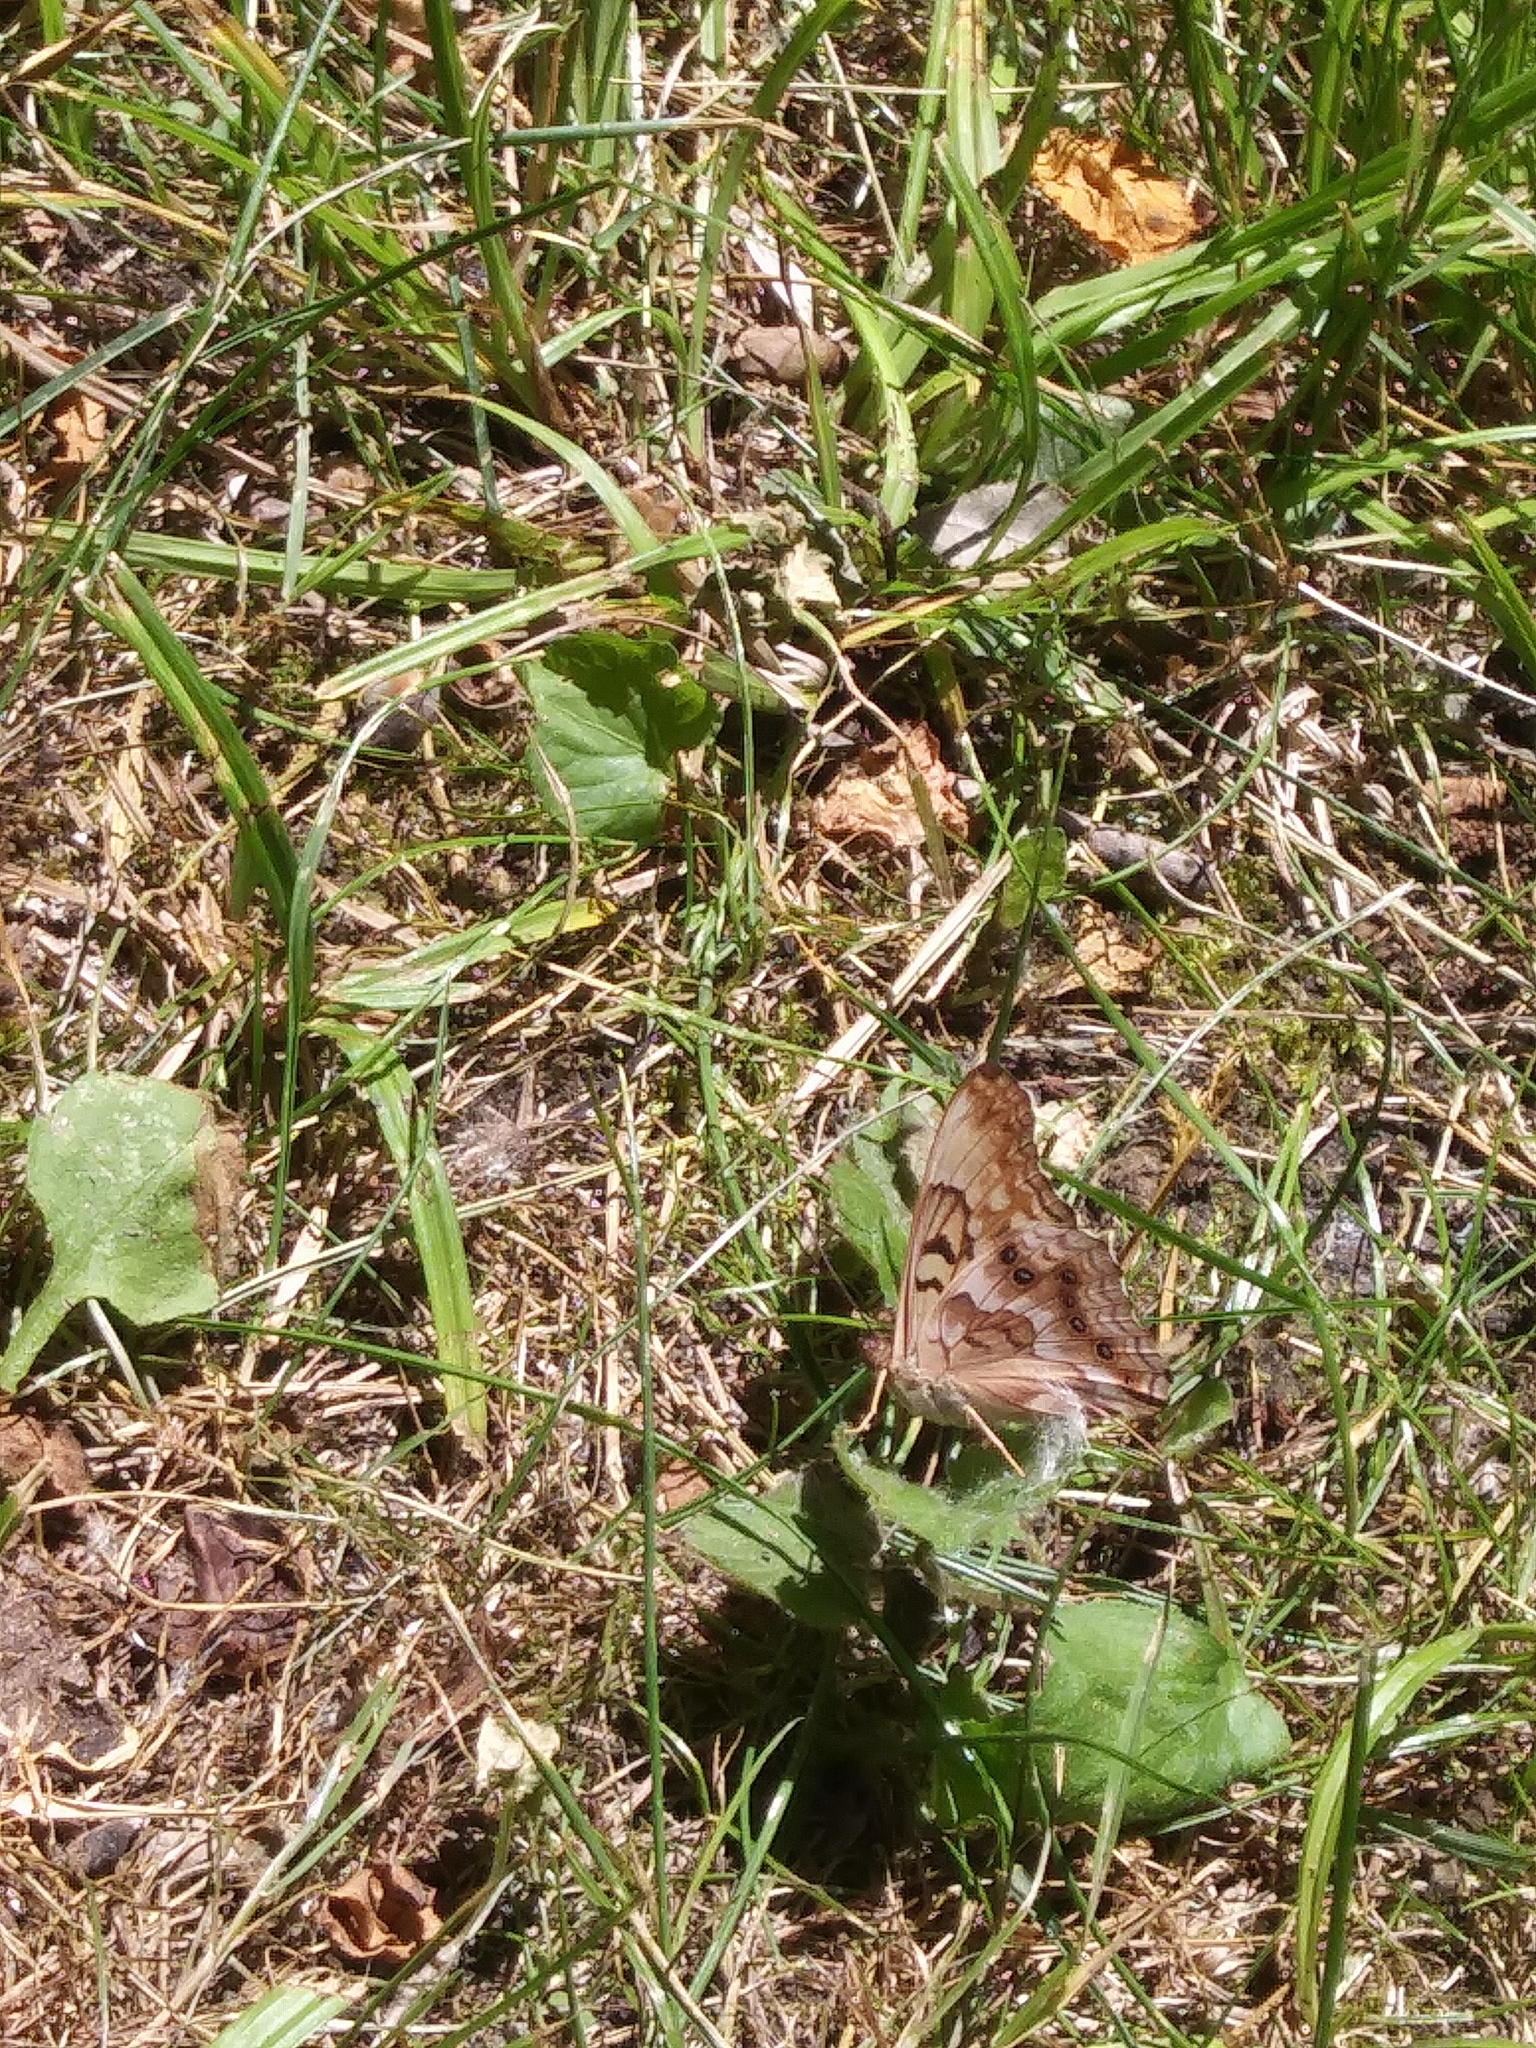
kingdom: Animalia
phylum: Arthropoda
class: Insecta
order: Lepidoptera
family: Nymphalidae
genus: Asterocampa
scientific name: Asterocampa clyton
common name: Tawny emperor
